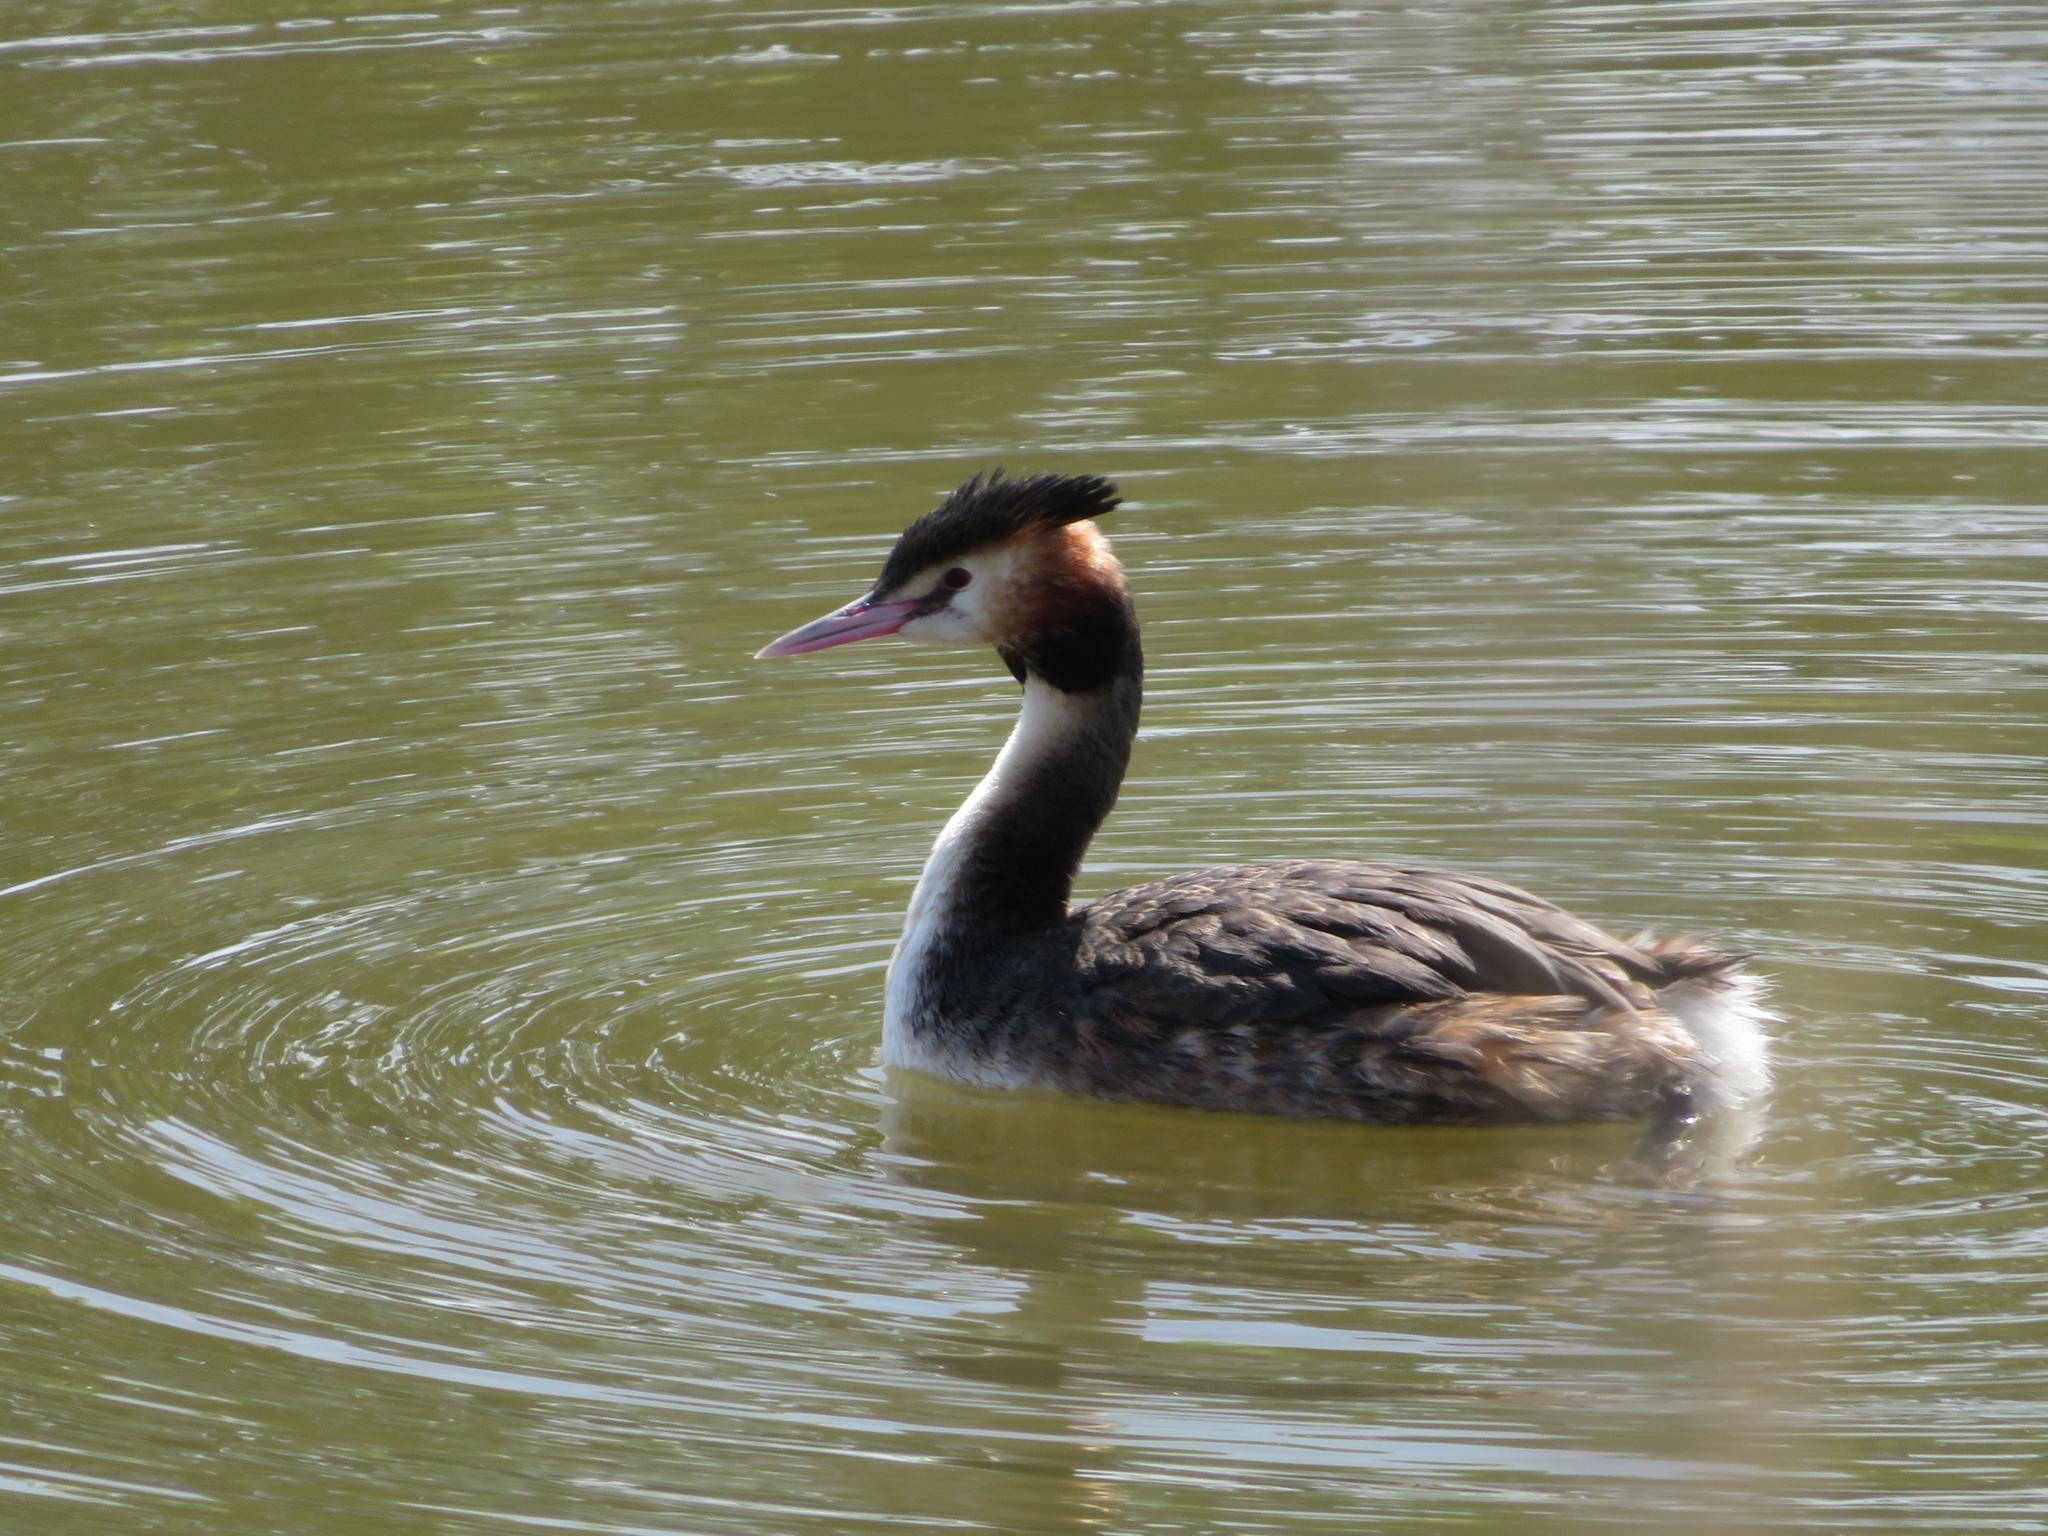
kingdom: Animalia
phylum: Chordata
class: Aves
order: Podicipediformes
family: Podicipedidae
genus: Podiceps
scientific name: Podiceps cristatus
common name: Great crested grebe
